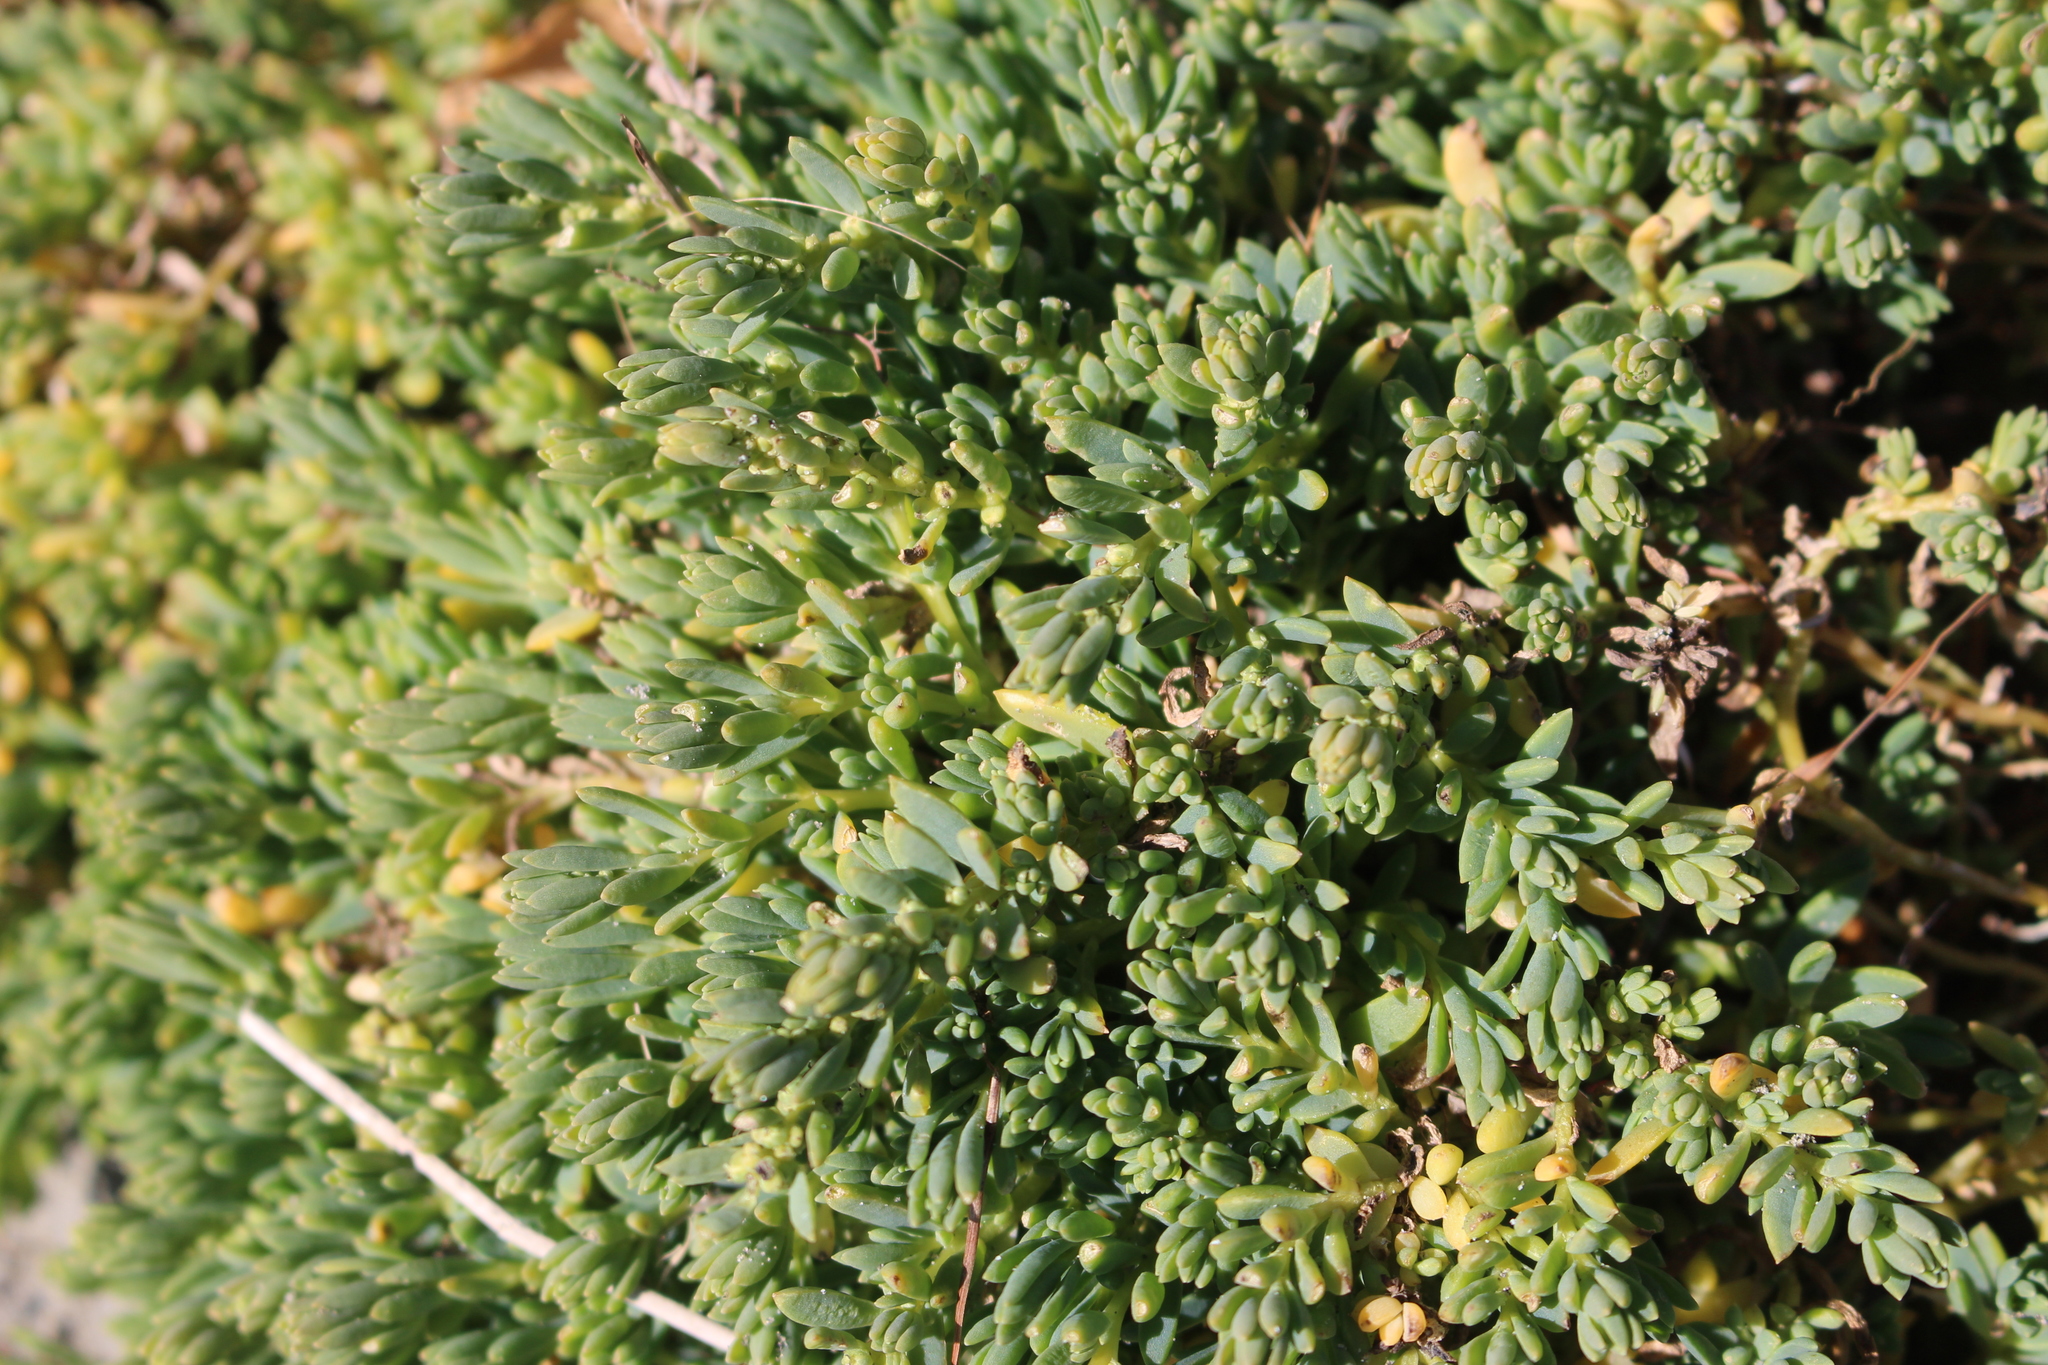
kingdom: Plantae
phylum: Tracheophyta
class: Magnoliopsida
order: Caryophyllales
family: Amaranthaceae
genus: Suaeda
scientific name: Suaeda novae-zelandiae
